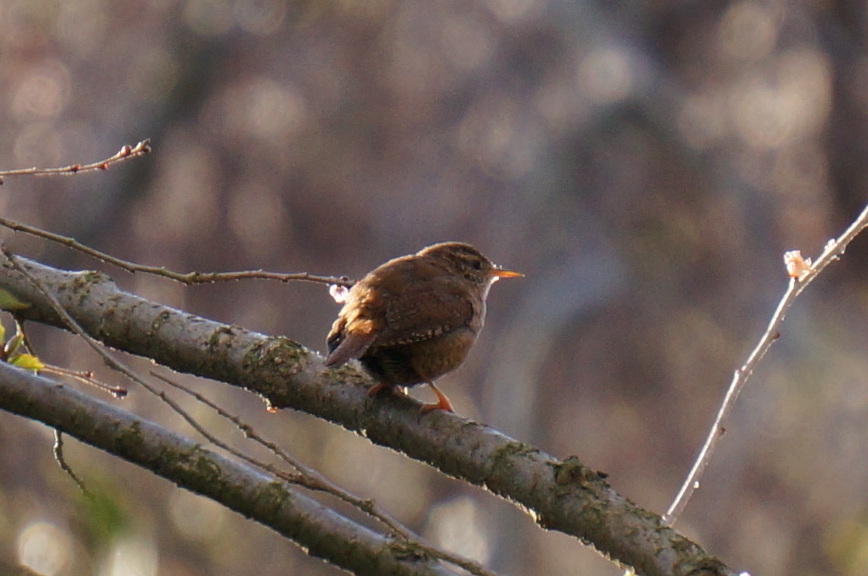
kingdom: Animalia
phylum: Chordata
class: Aves
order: Passeriformes
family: Troglodytidae
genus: Troglodytes
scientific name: Troglodytes troglodytes
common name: Eurasian wren
